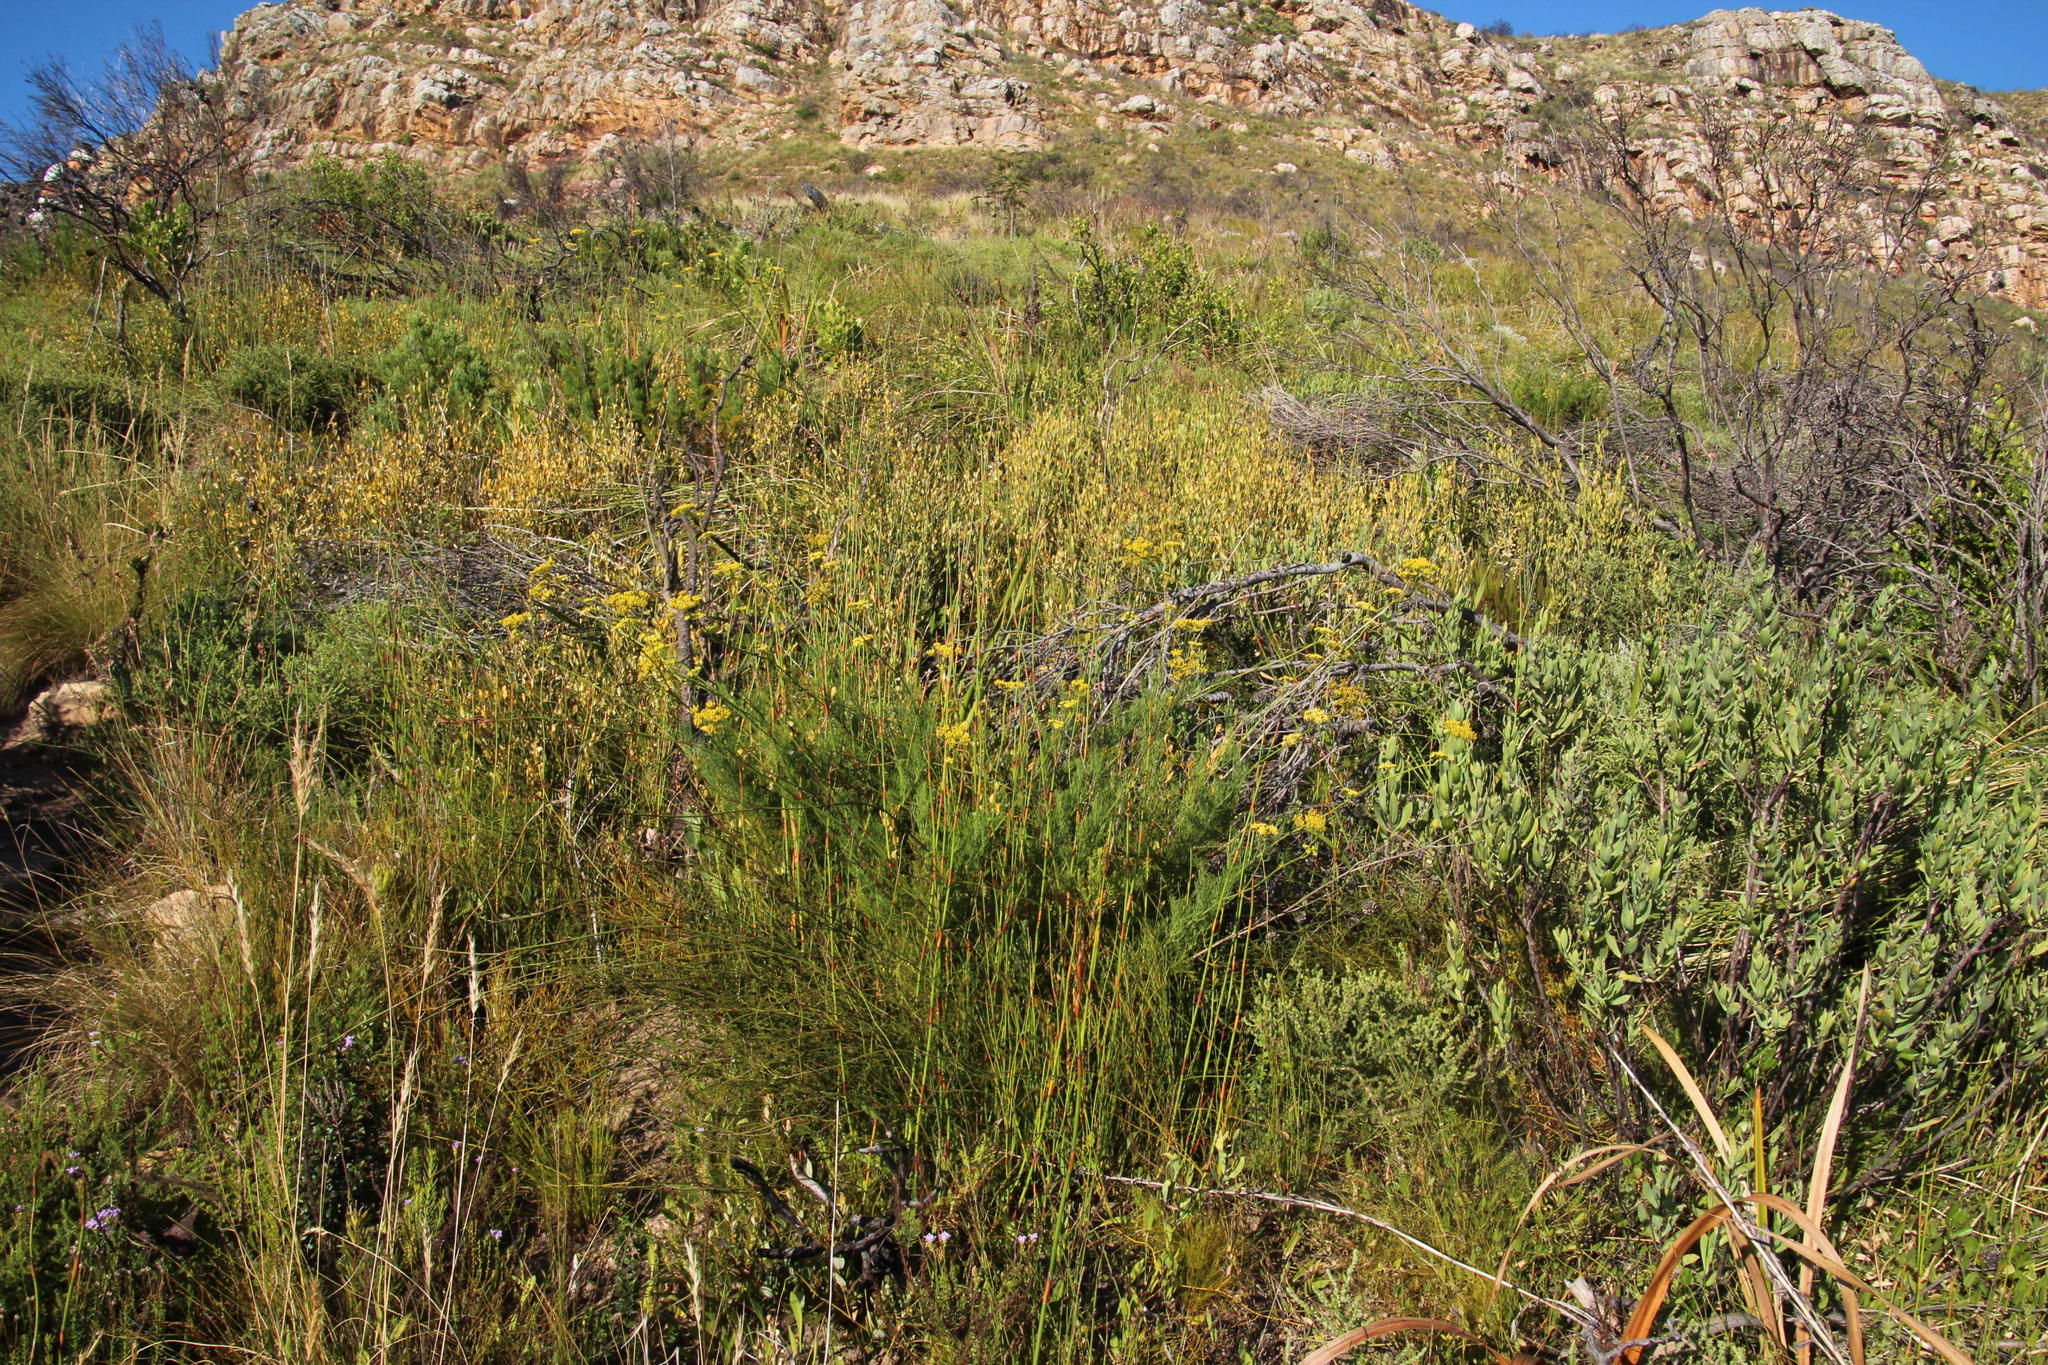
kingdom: Plantae
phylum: Tracheophyta
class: Magnoliopsida
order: Apiales
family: Apiaceae
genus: Notobubon
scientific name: Notobubon ferulaceum
